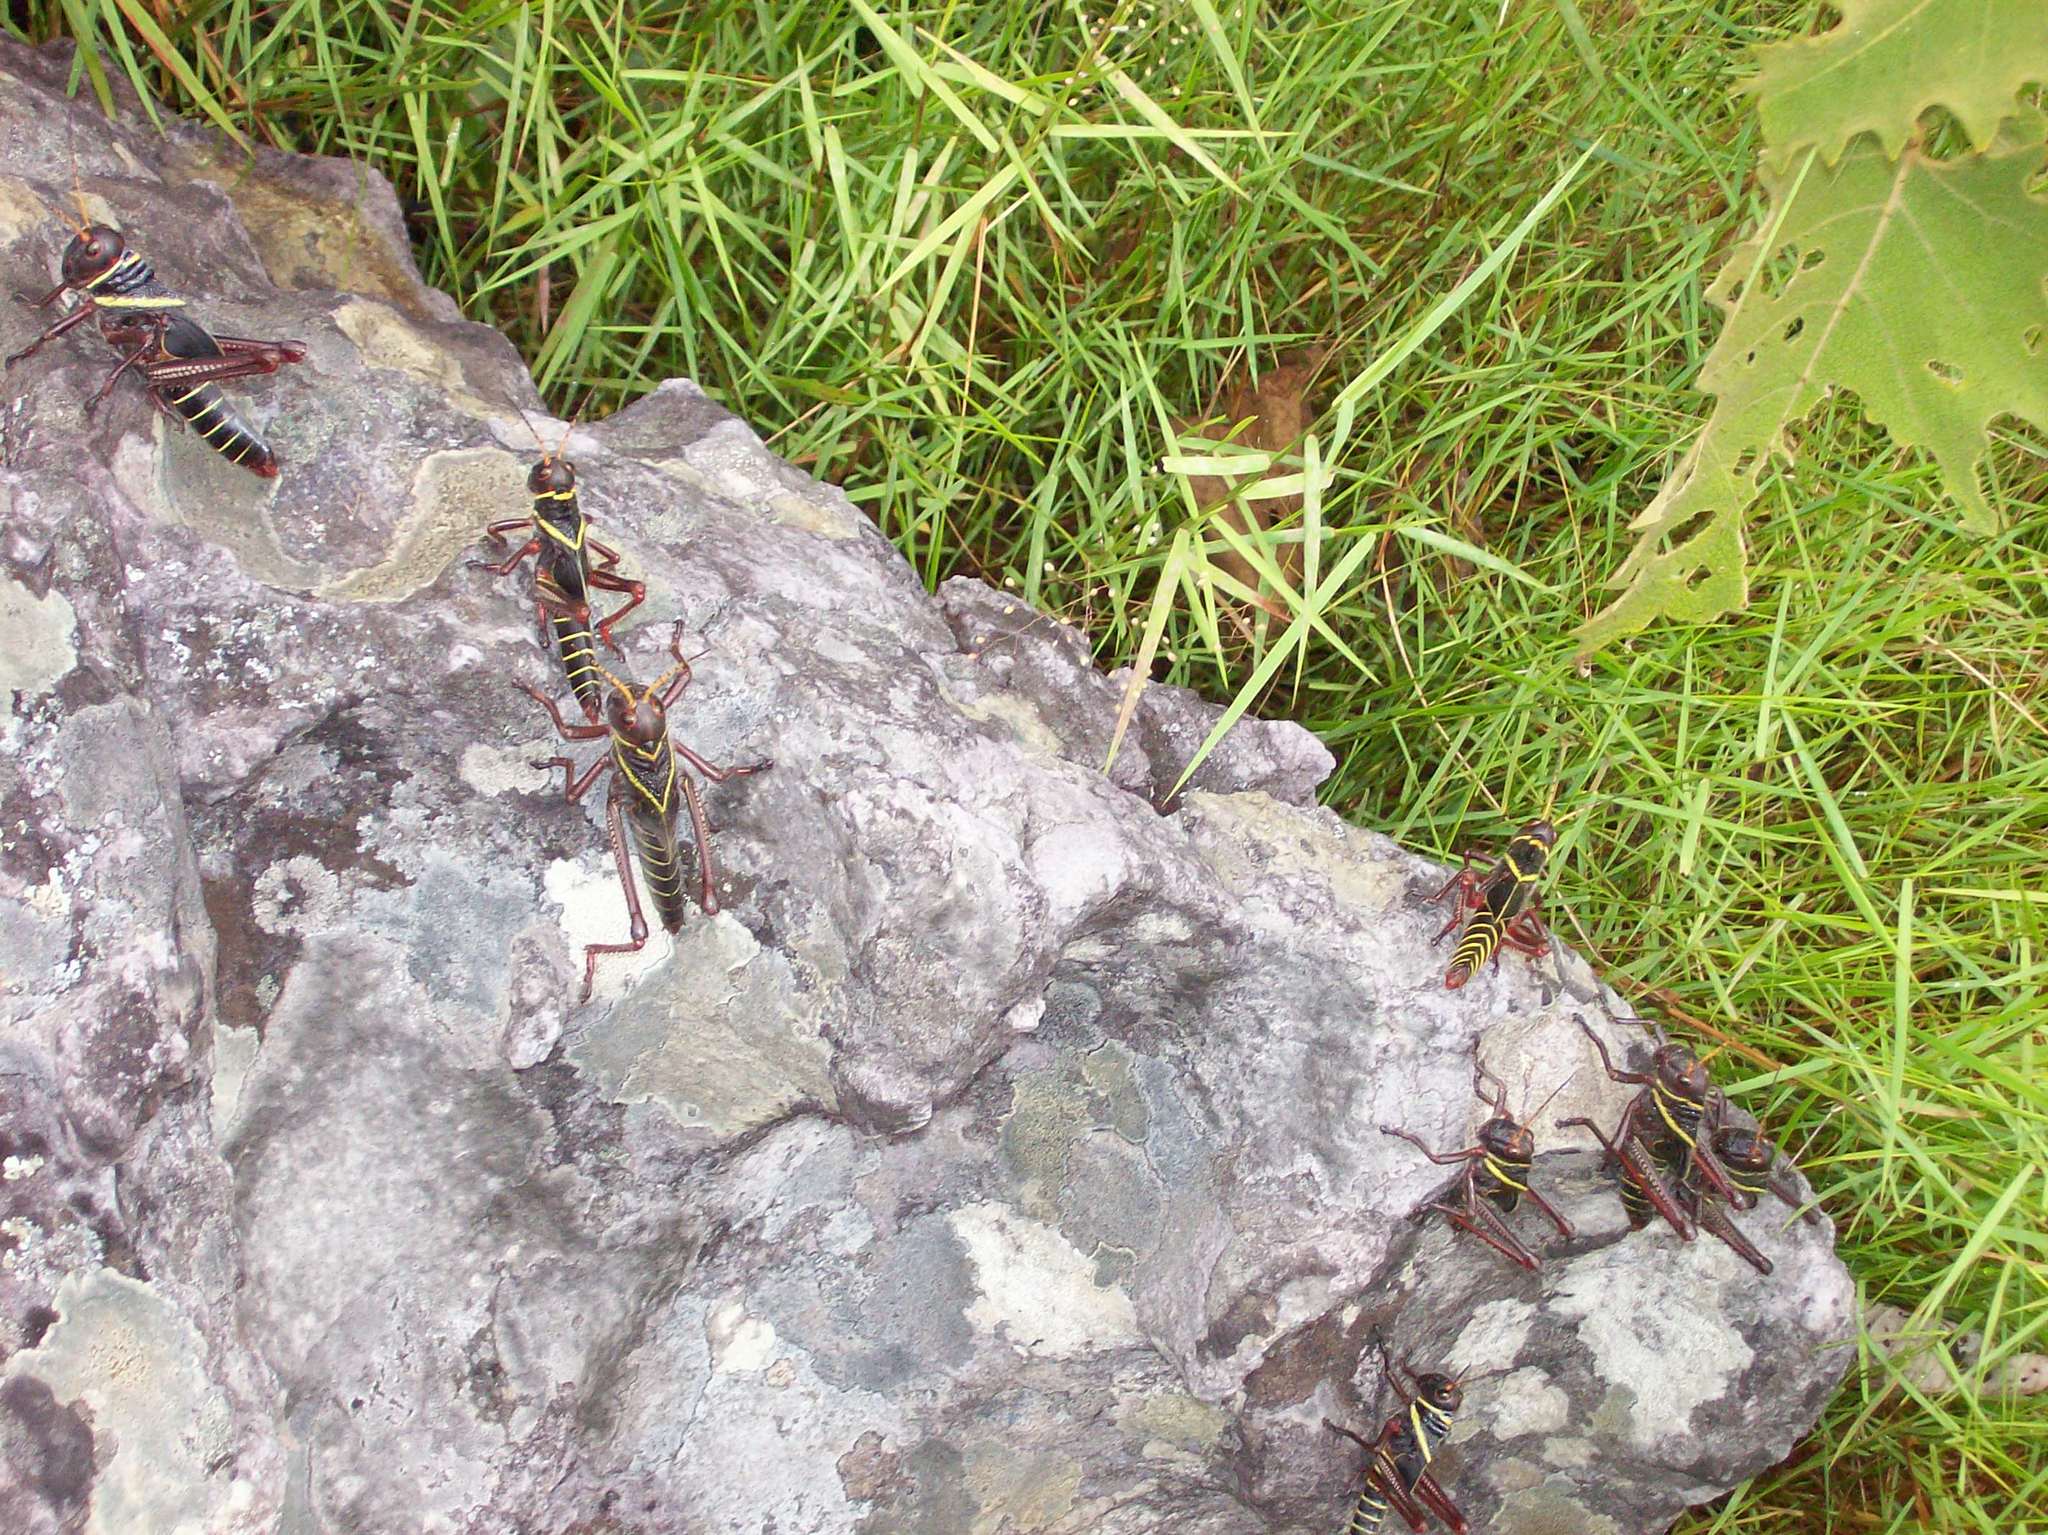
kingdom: Animalia
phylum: Arthropoda
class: Insecta
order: Orthoptera
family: Romaleidae
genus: Tropidacris
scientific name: Tropidacris collaris
